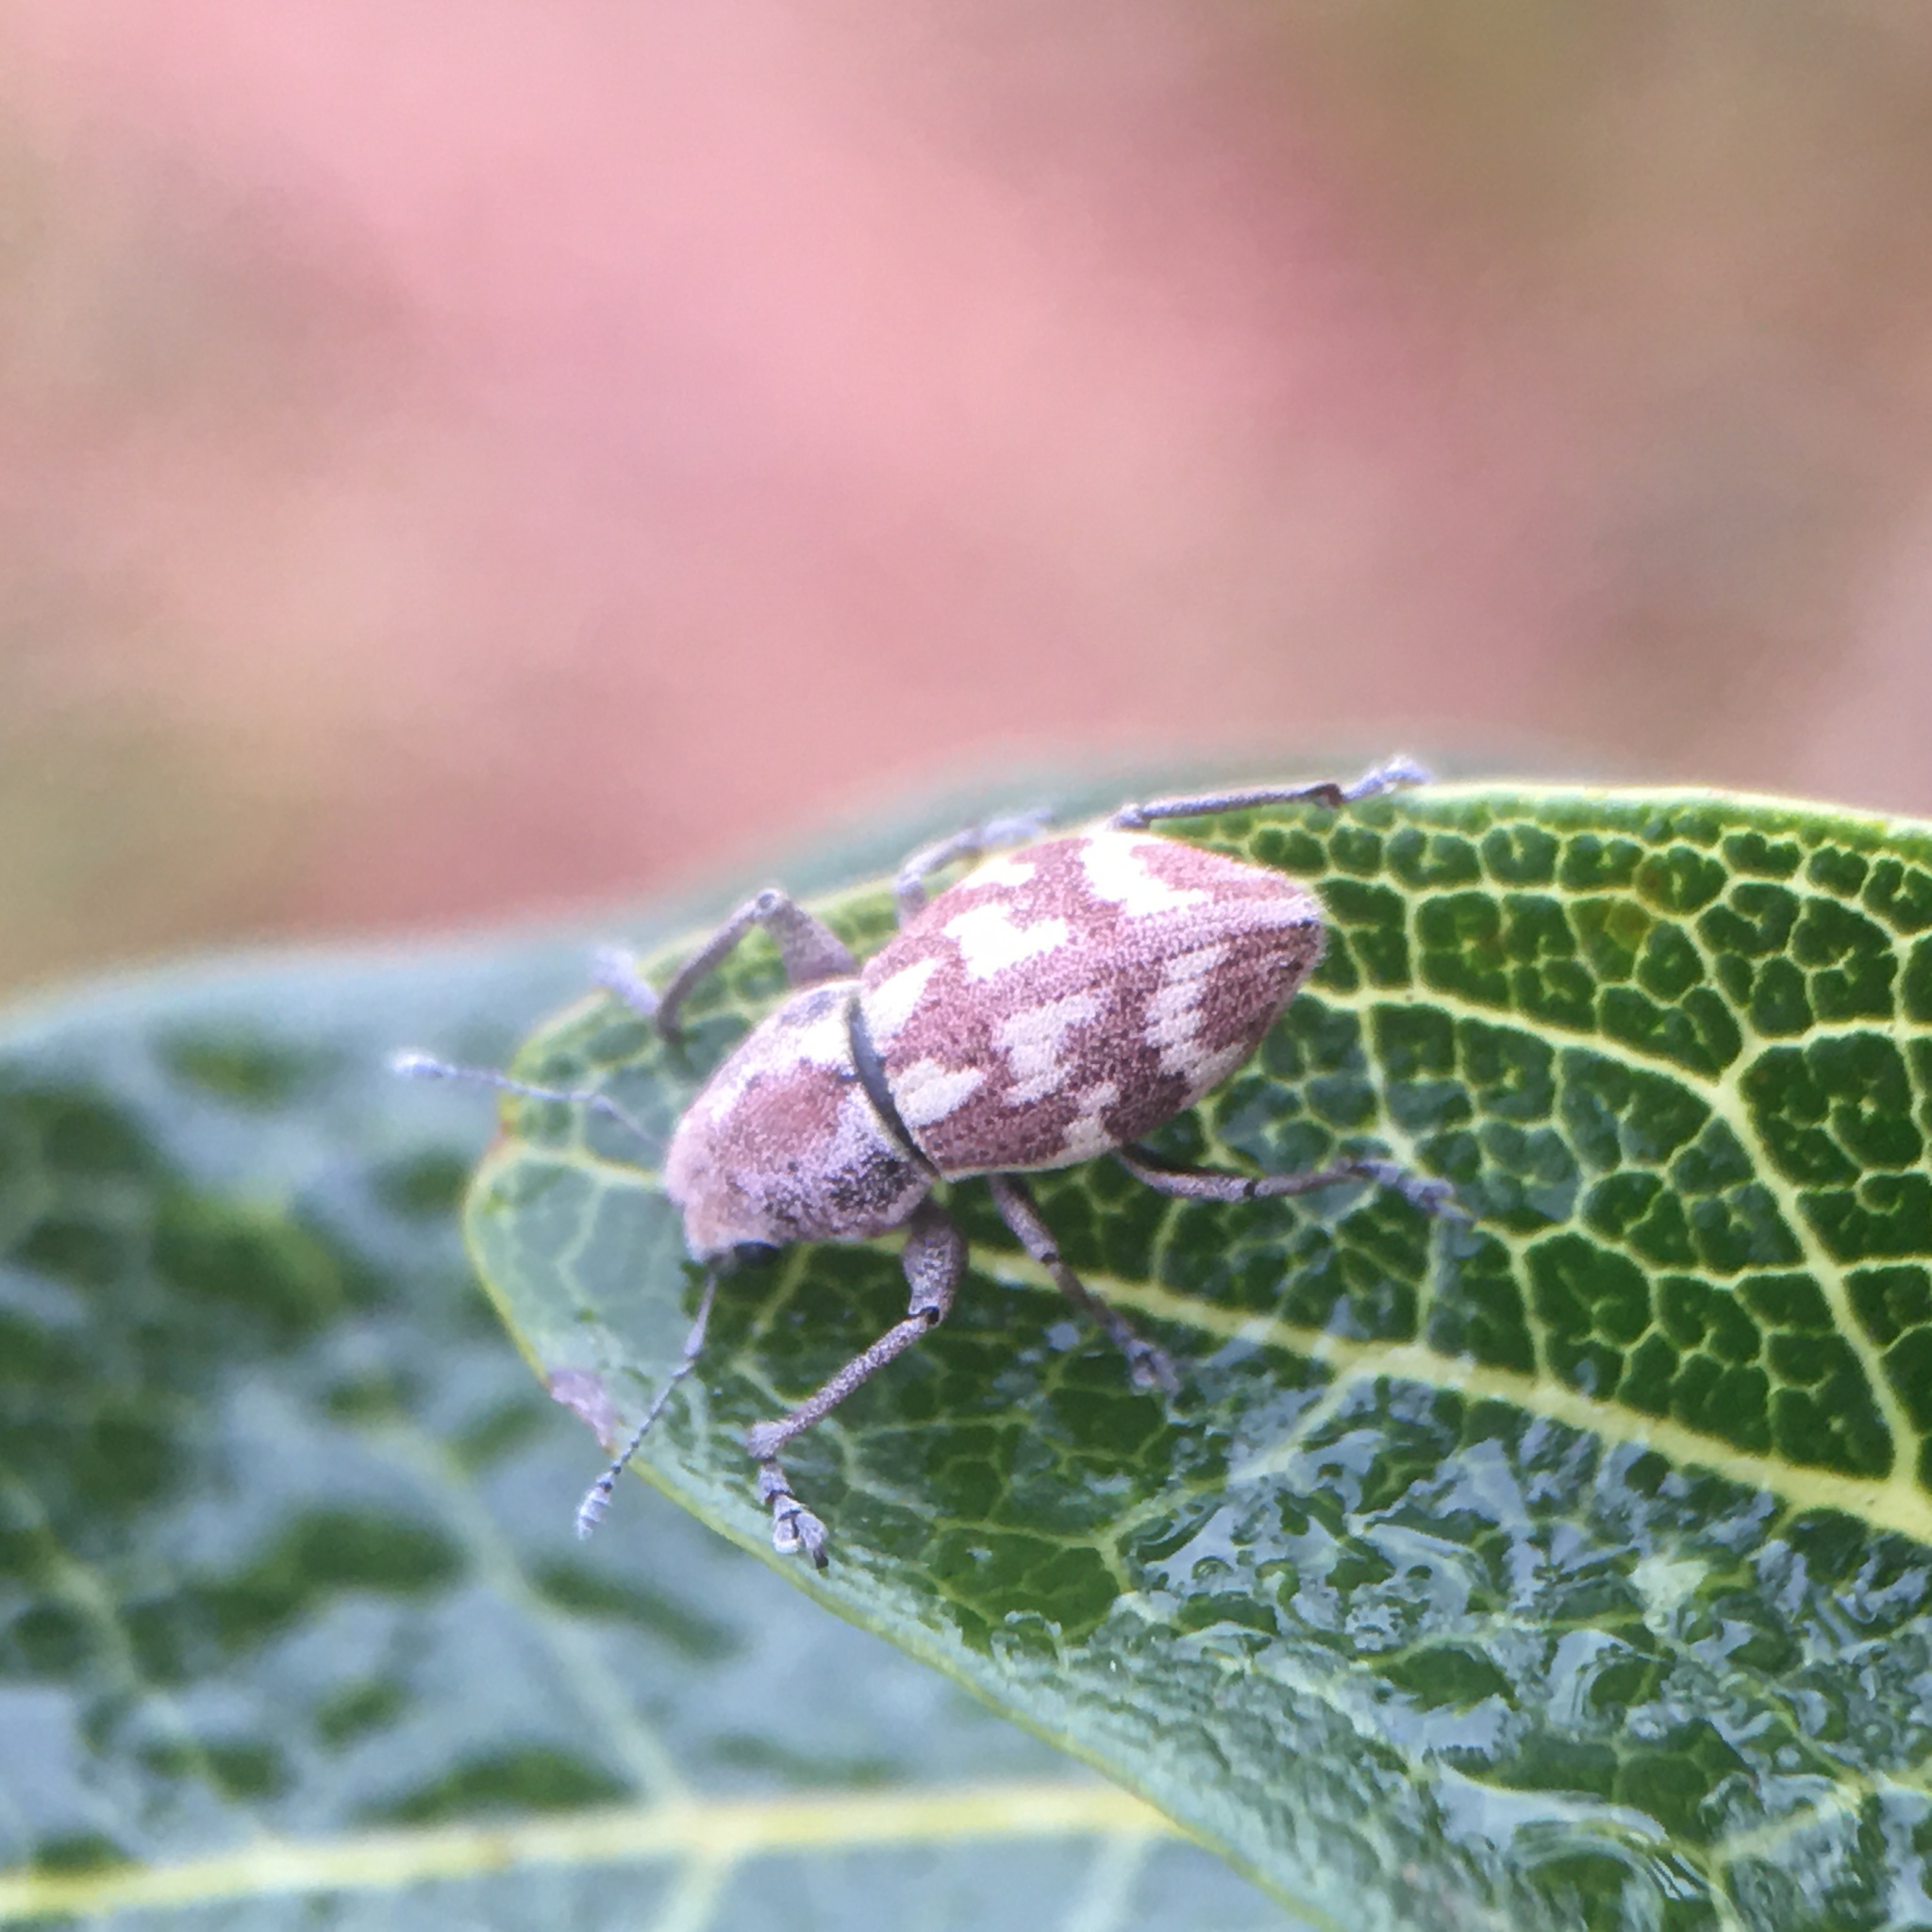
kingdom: Animalia
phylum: Arthropoda
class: Insecta
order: Coleoptera
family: Curculionidae
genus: Parapantomorus
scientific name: Parapantomorus fluctuosus
